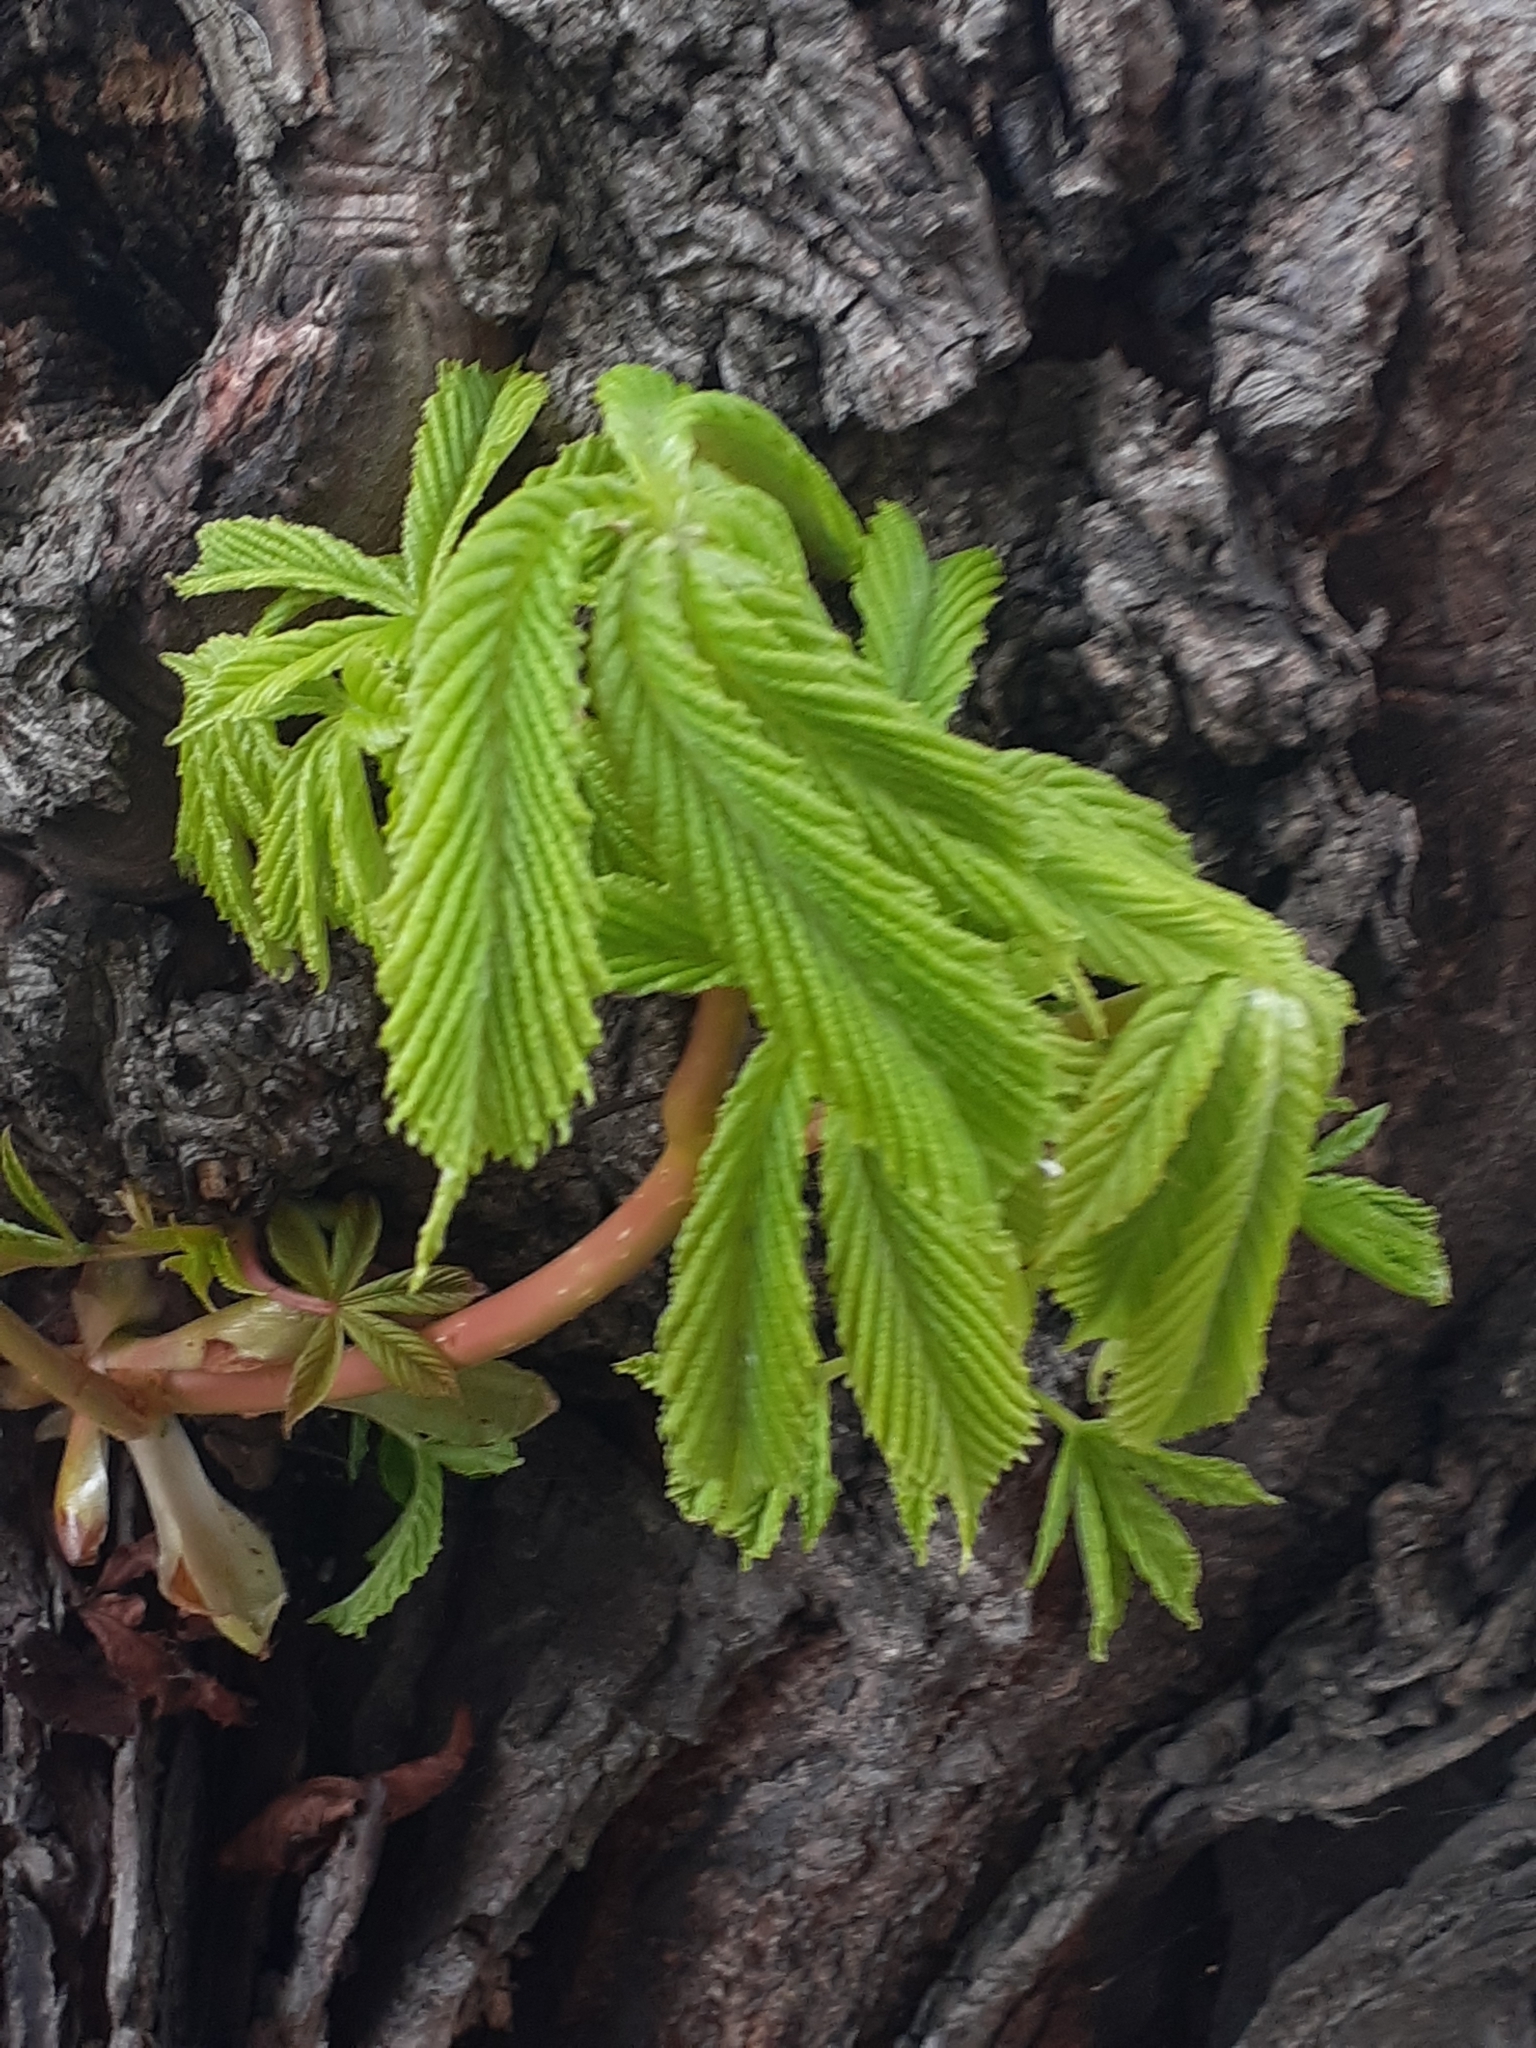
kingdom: Plantae
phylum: Tracheophyta
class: Magnoliopsida
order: Sapindales
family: Sapindaceae
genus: Aesculus
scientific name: Aesculus hippocastanum
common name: Horse-chestnut
